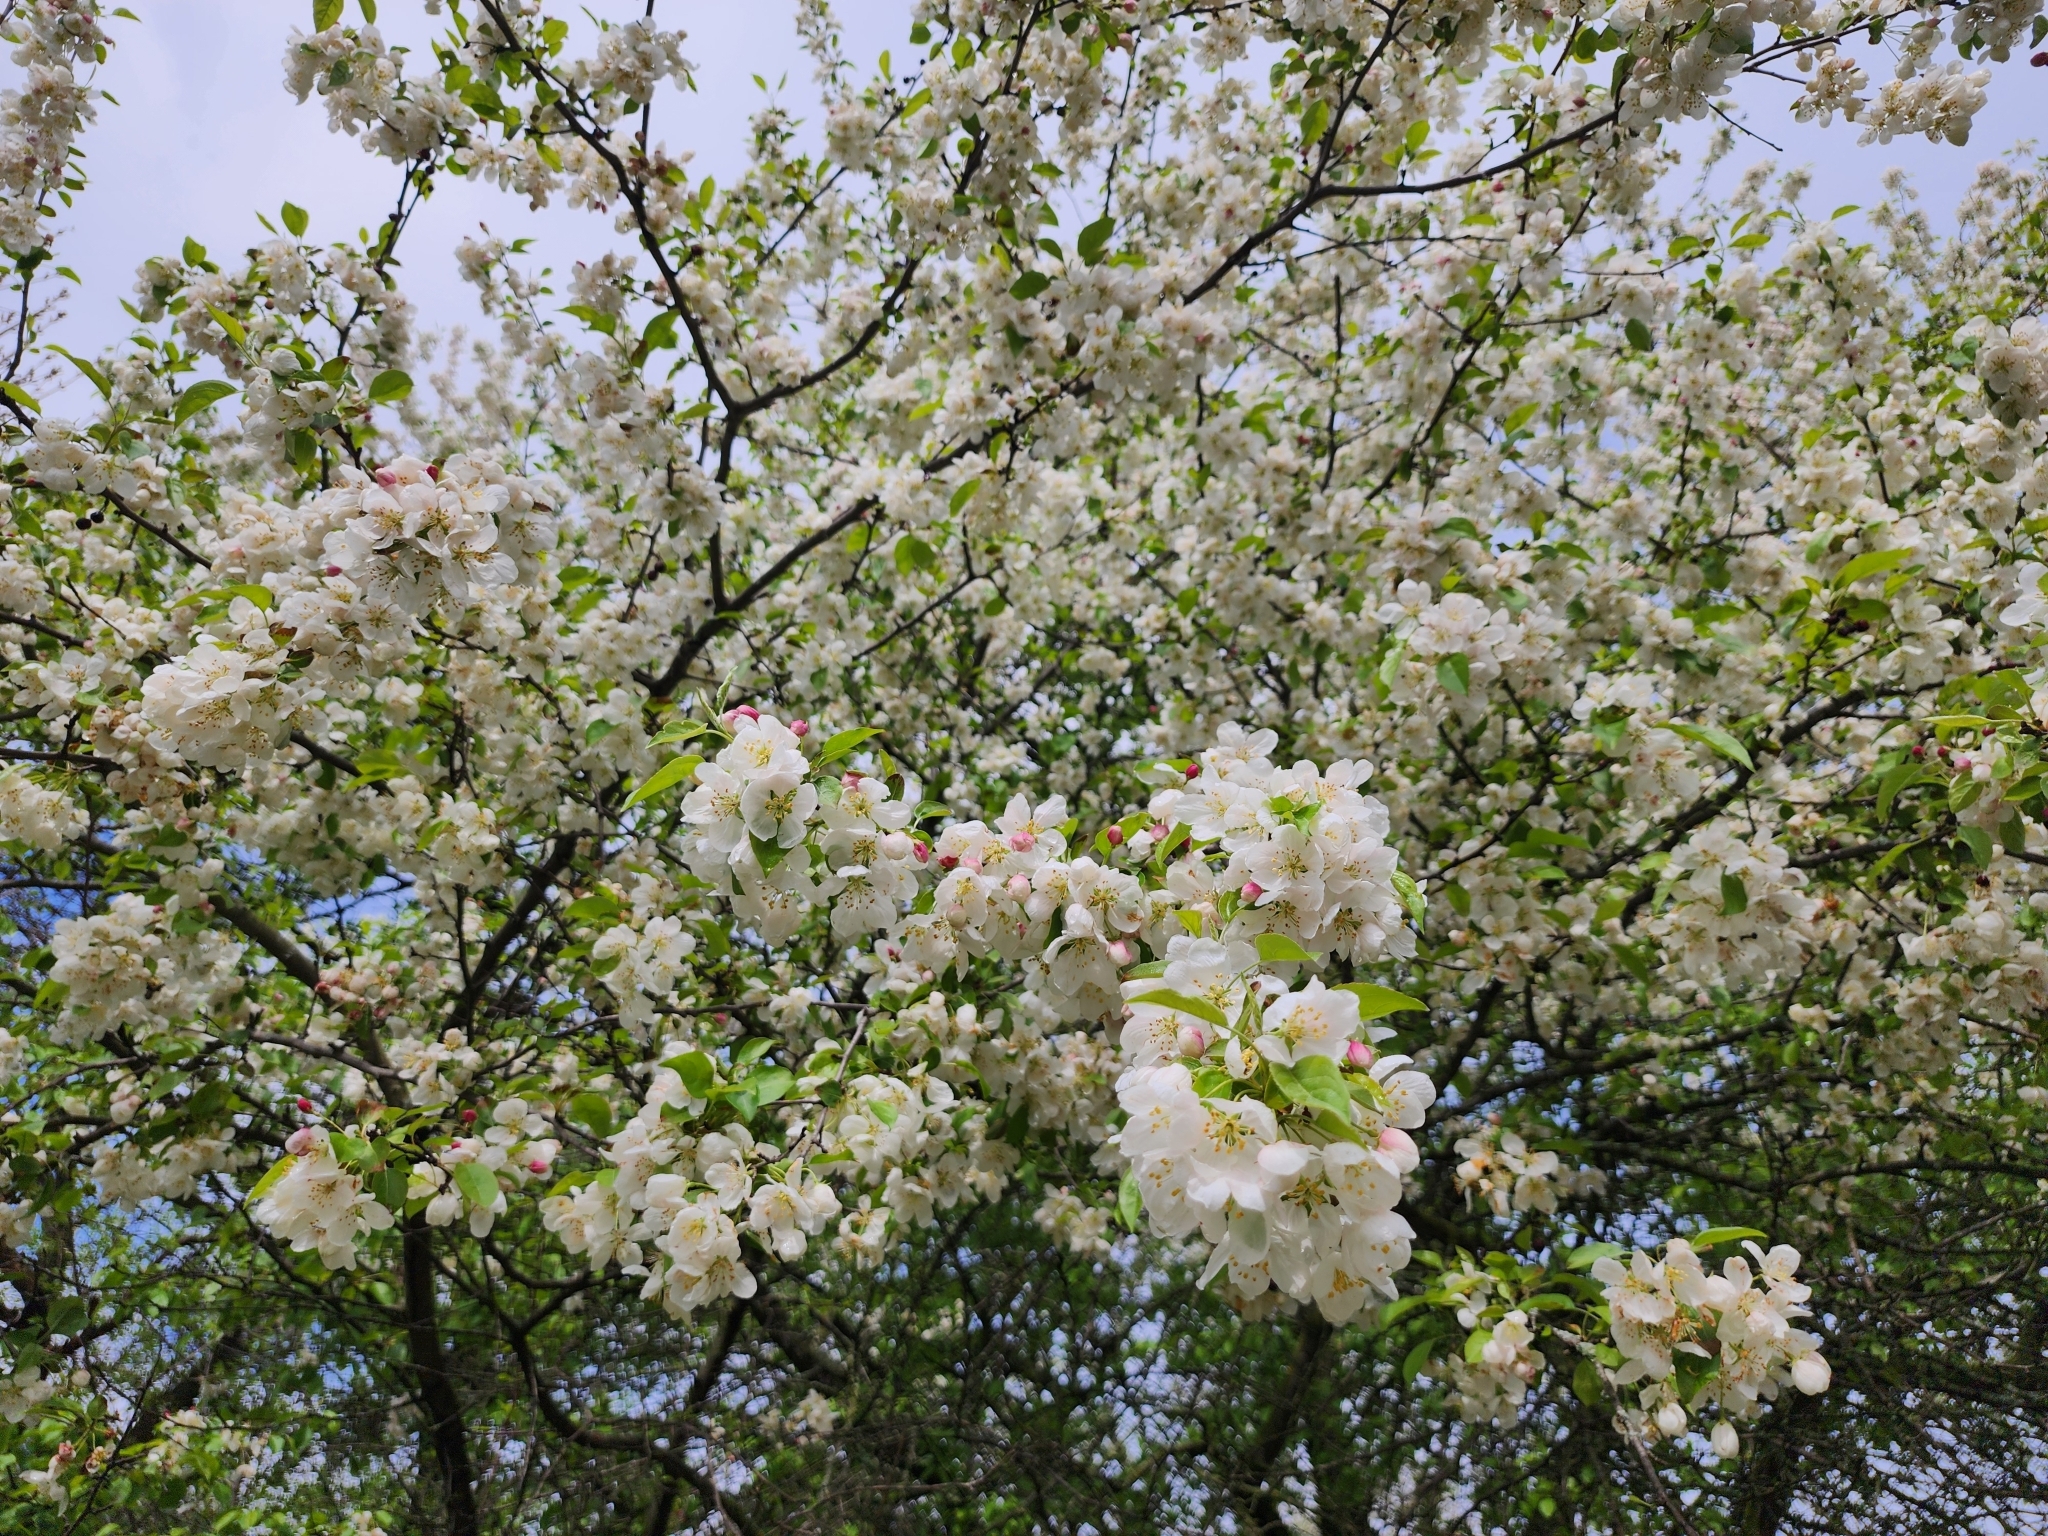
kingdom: Plantae
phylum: Tracheophyta
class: Magnoliopsida
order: Rosales
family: Rosaceae
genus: Malus
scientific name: Malus baccata
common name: Siberian crab
